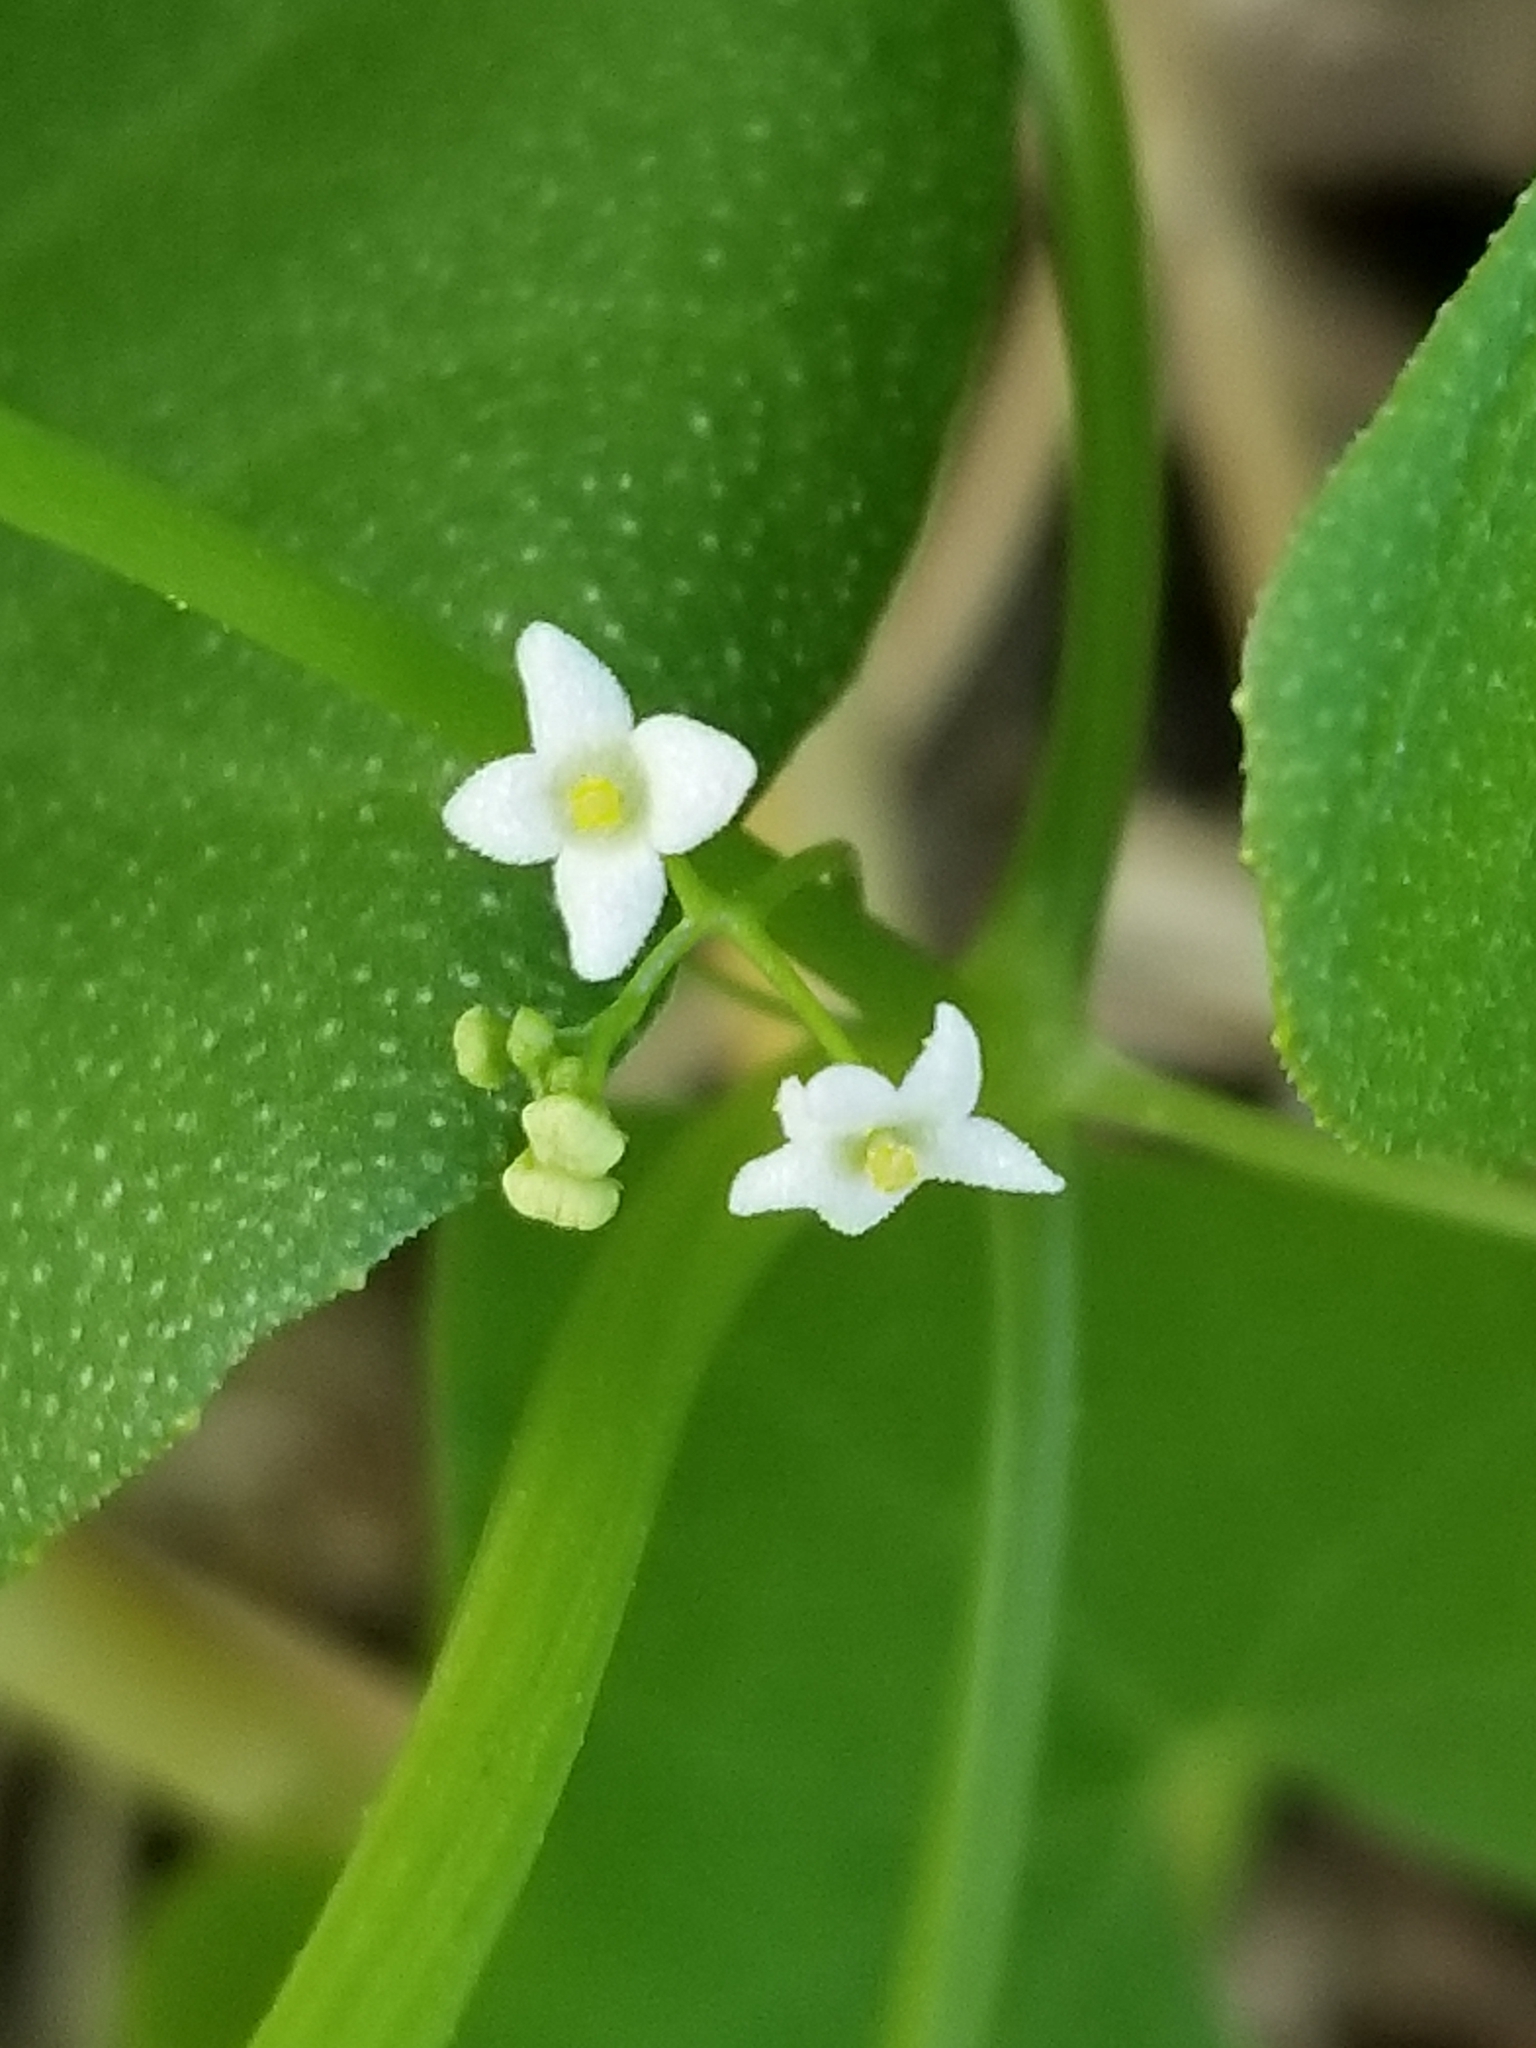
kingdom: Plantae
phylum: Tracheophyta
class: Magnoliopsida
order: Cucurbitales
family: Cucurbitaceae
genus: Echinopepon
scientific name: Echinopepon bigelovii
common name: Desert starvine
